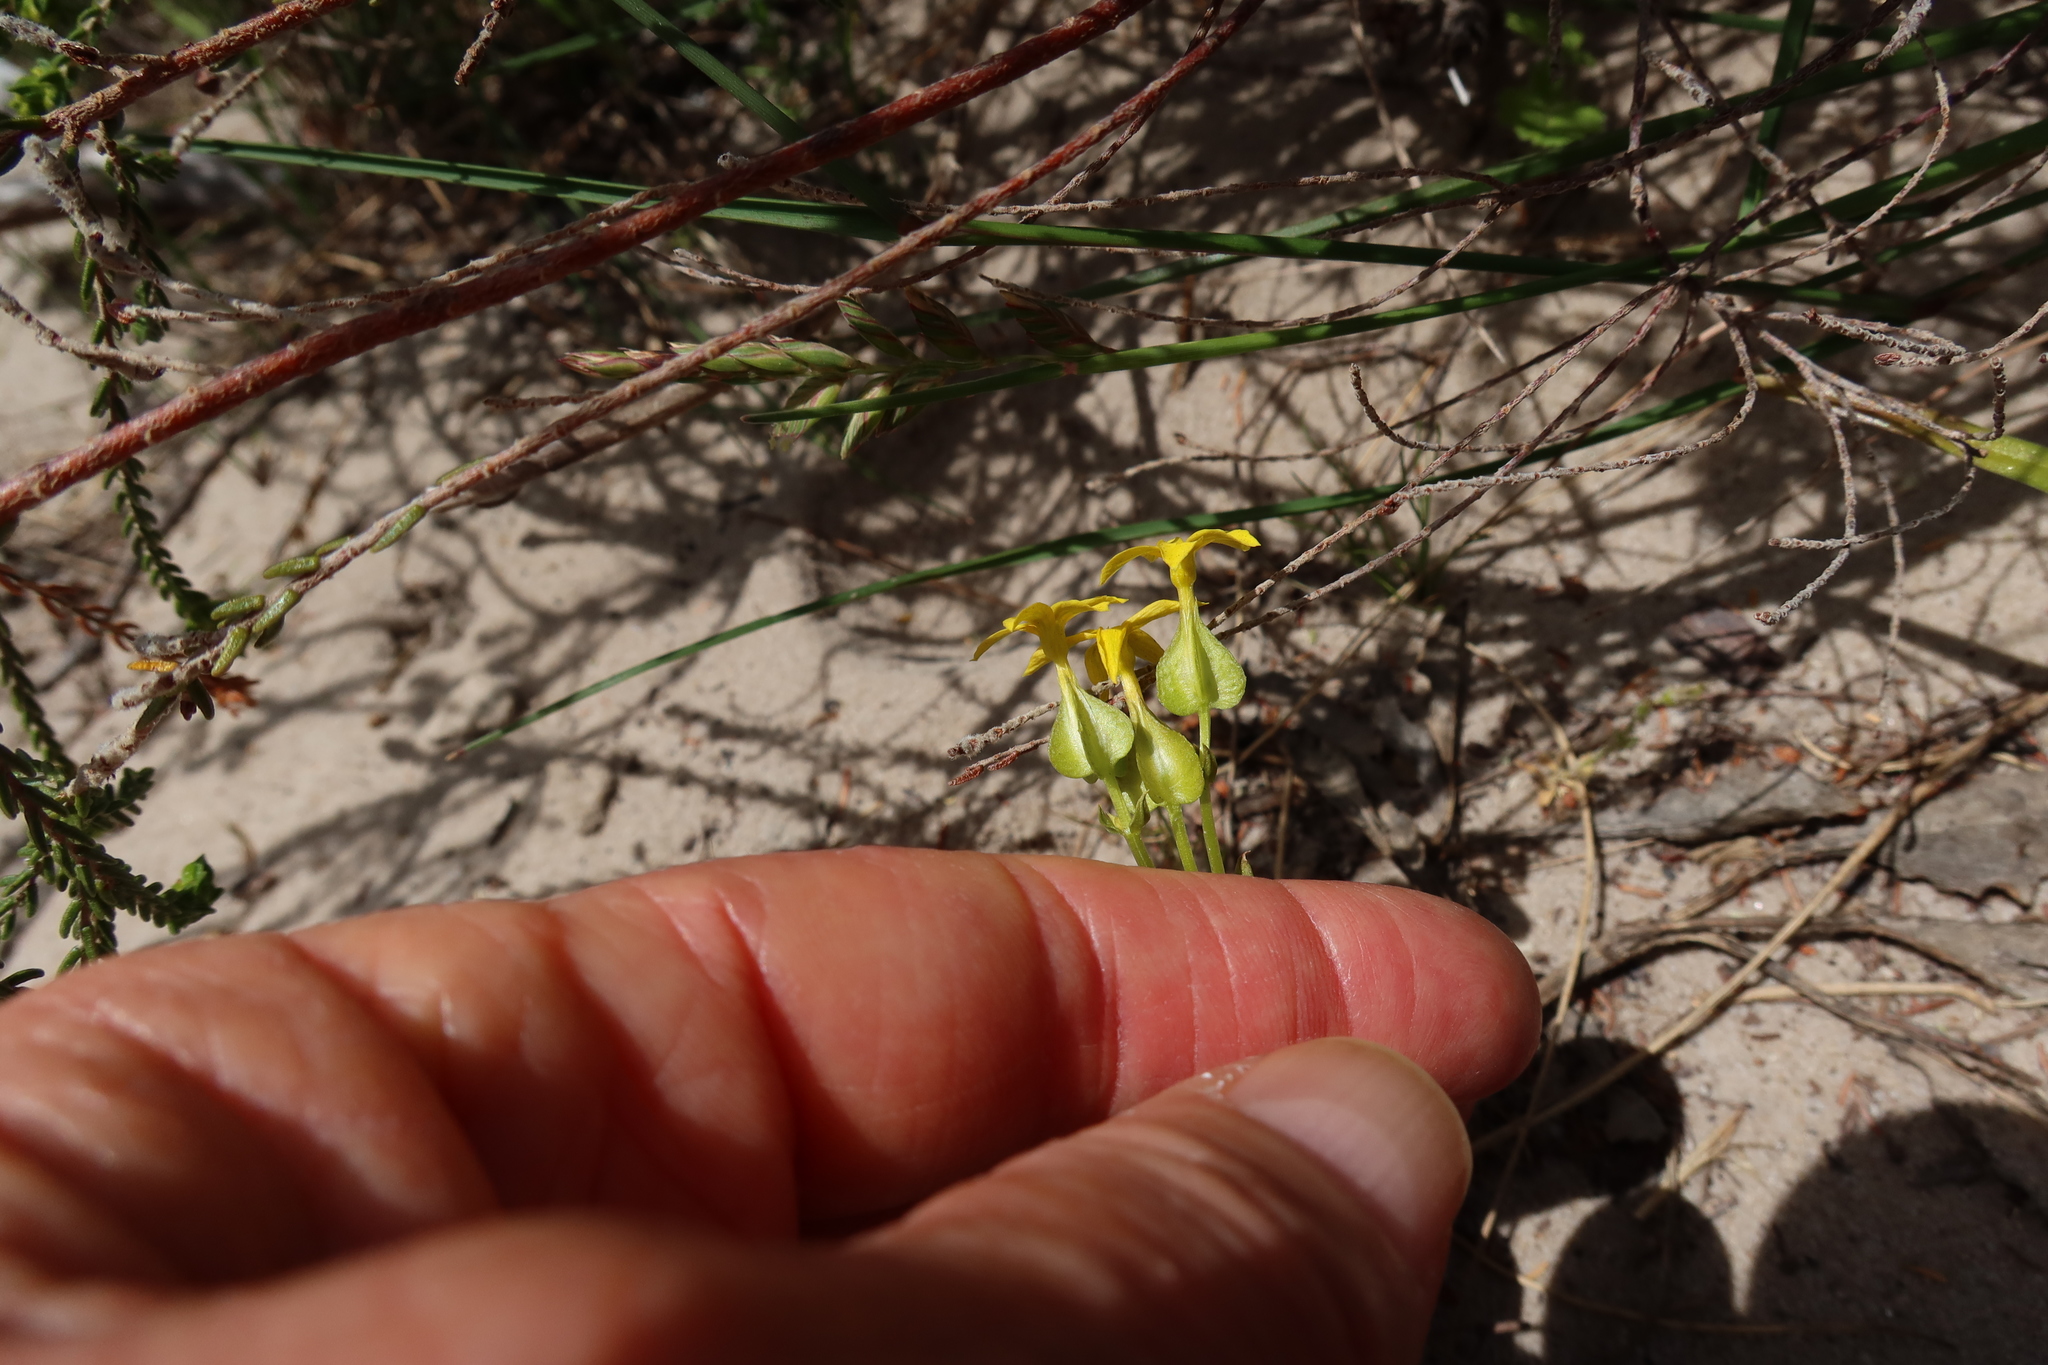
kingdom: Plantae
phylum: Tracheophyta
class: Magnoliopsida
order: Gentianales
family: Gentianaceae
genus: Sebaea
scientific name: Sebaea exacoides
